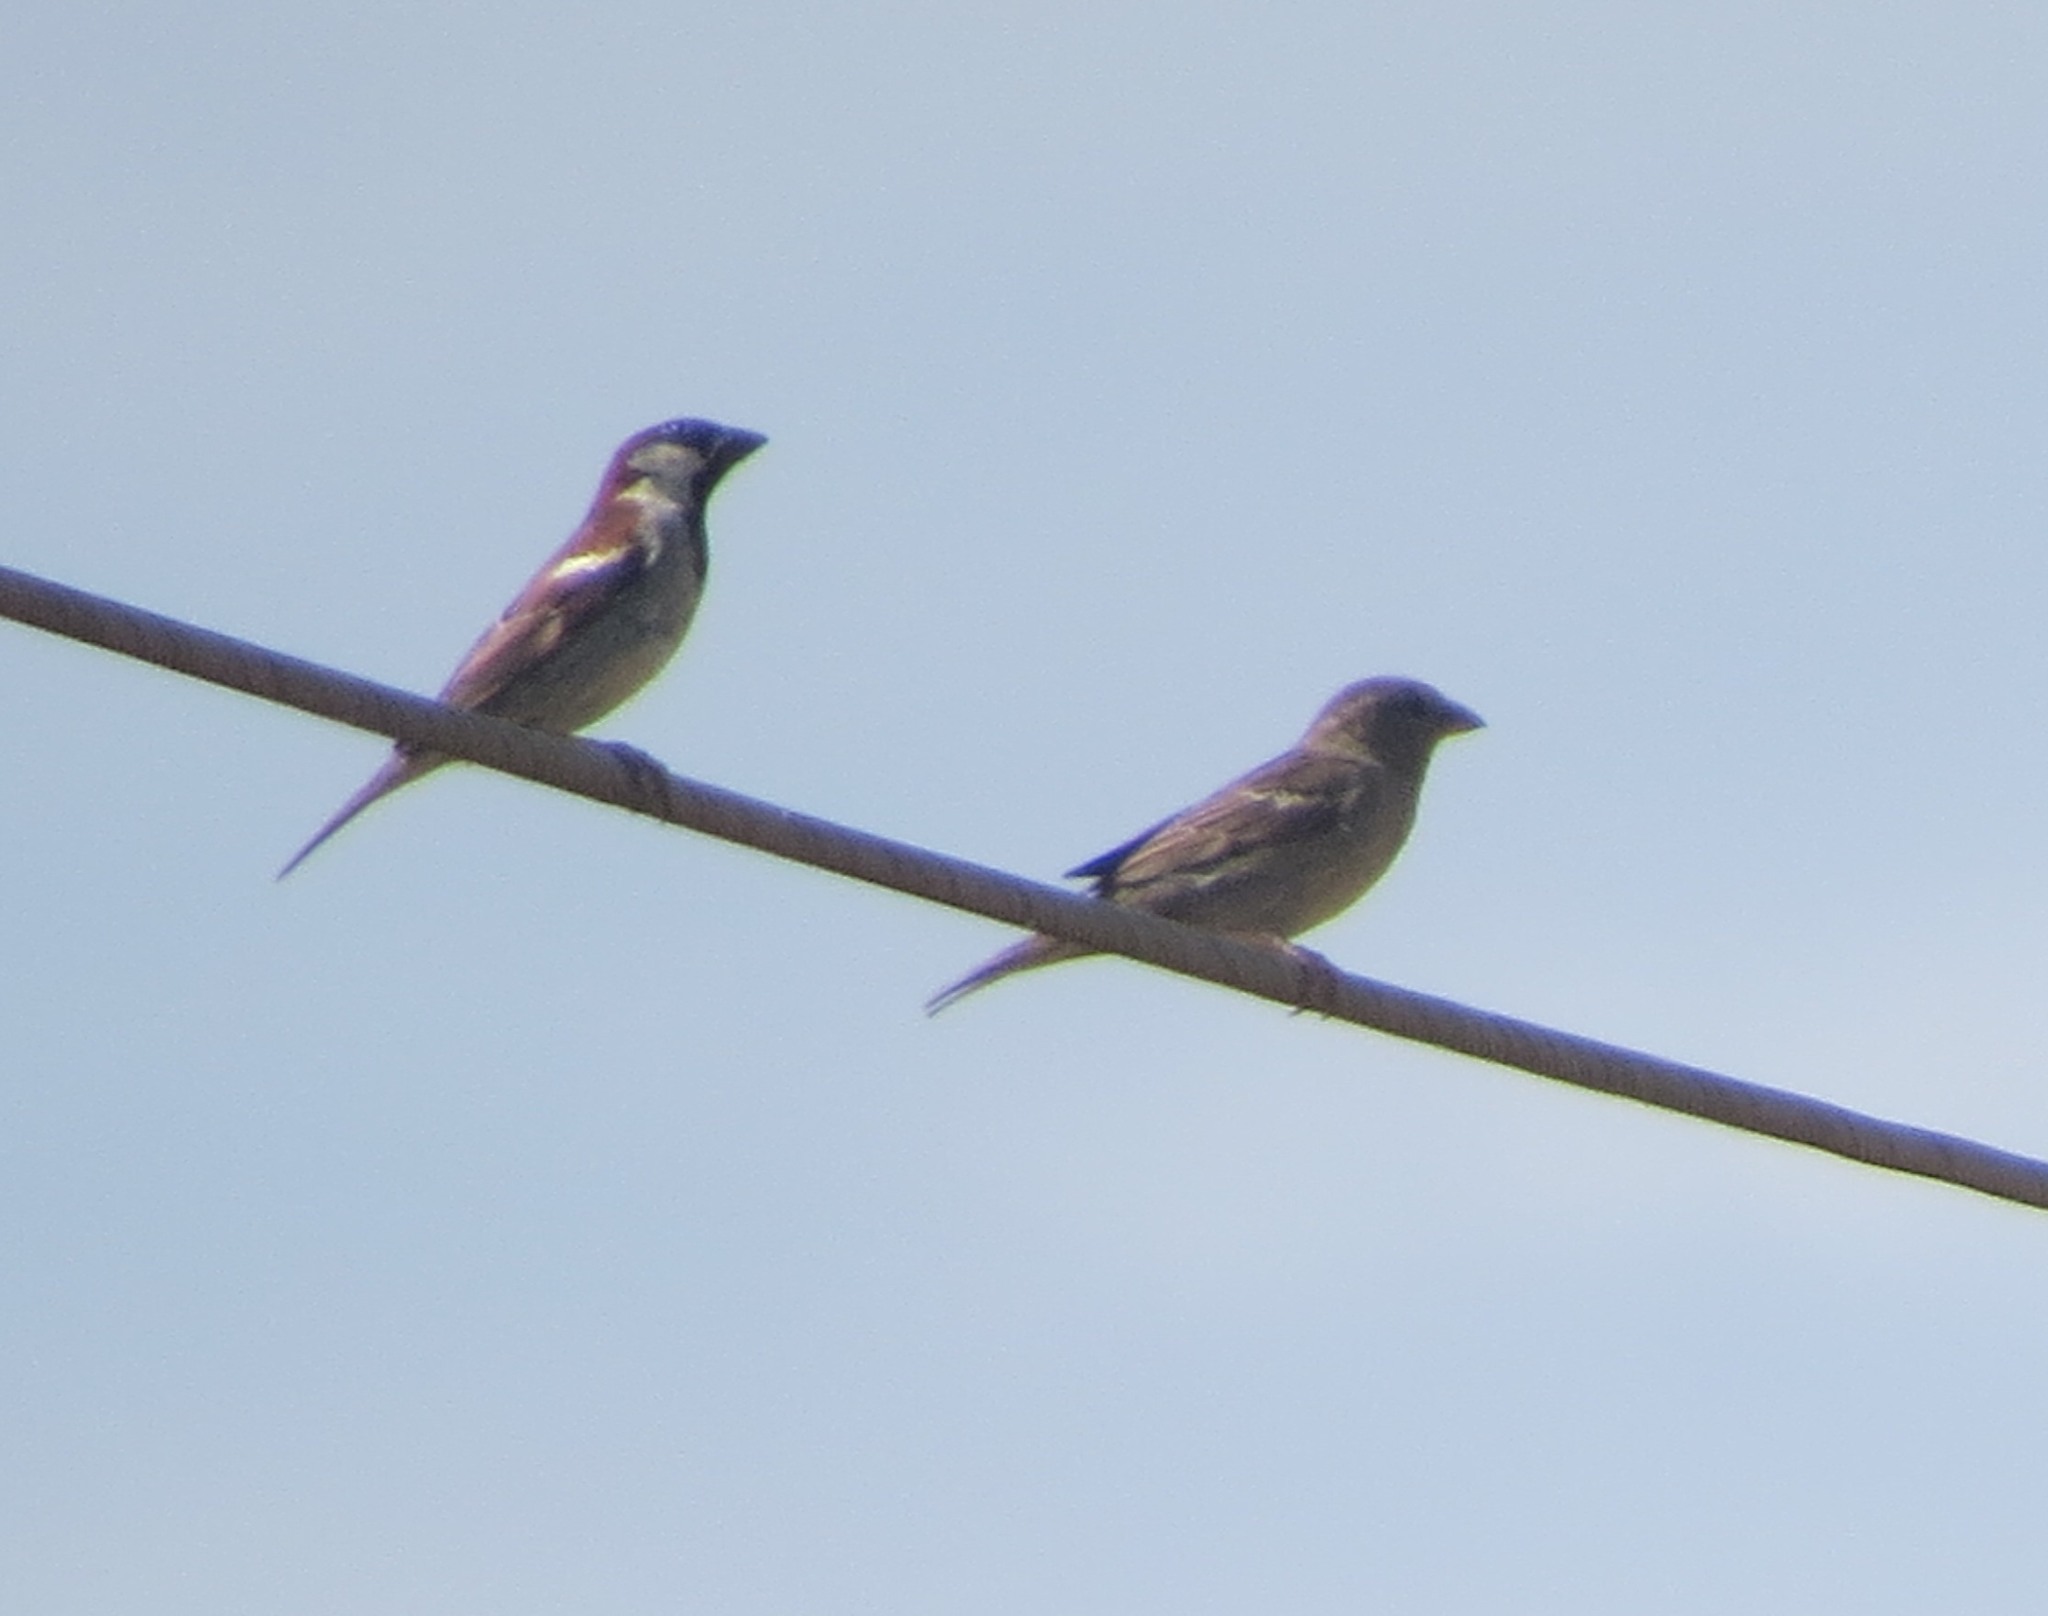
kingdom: Animalia
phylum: Chordata
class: Aves
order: Passeriformes
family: Passeridae
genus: Passer
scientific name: Passer domesticus
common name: House sparrow
